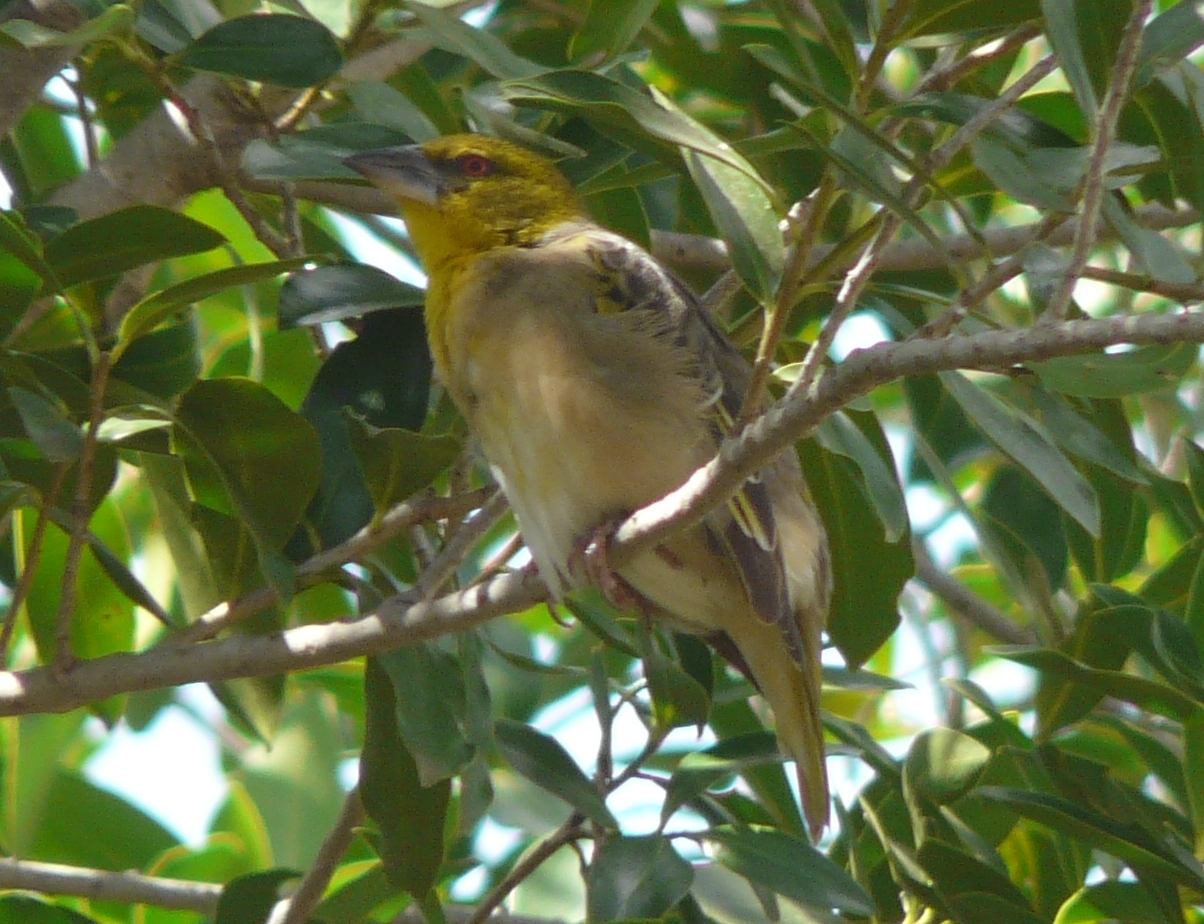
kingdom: Animalia
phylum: Chordata
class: Aves
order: Passeriformes
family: Ploceidae
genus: Ploceus
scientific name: Ploceus cucullatus
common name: Village weaver
